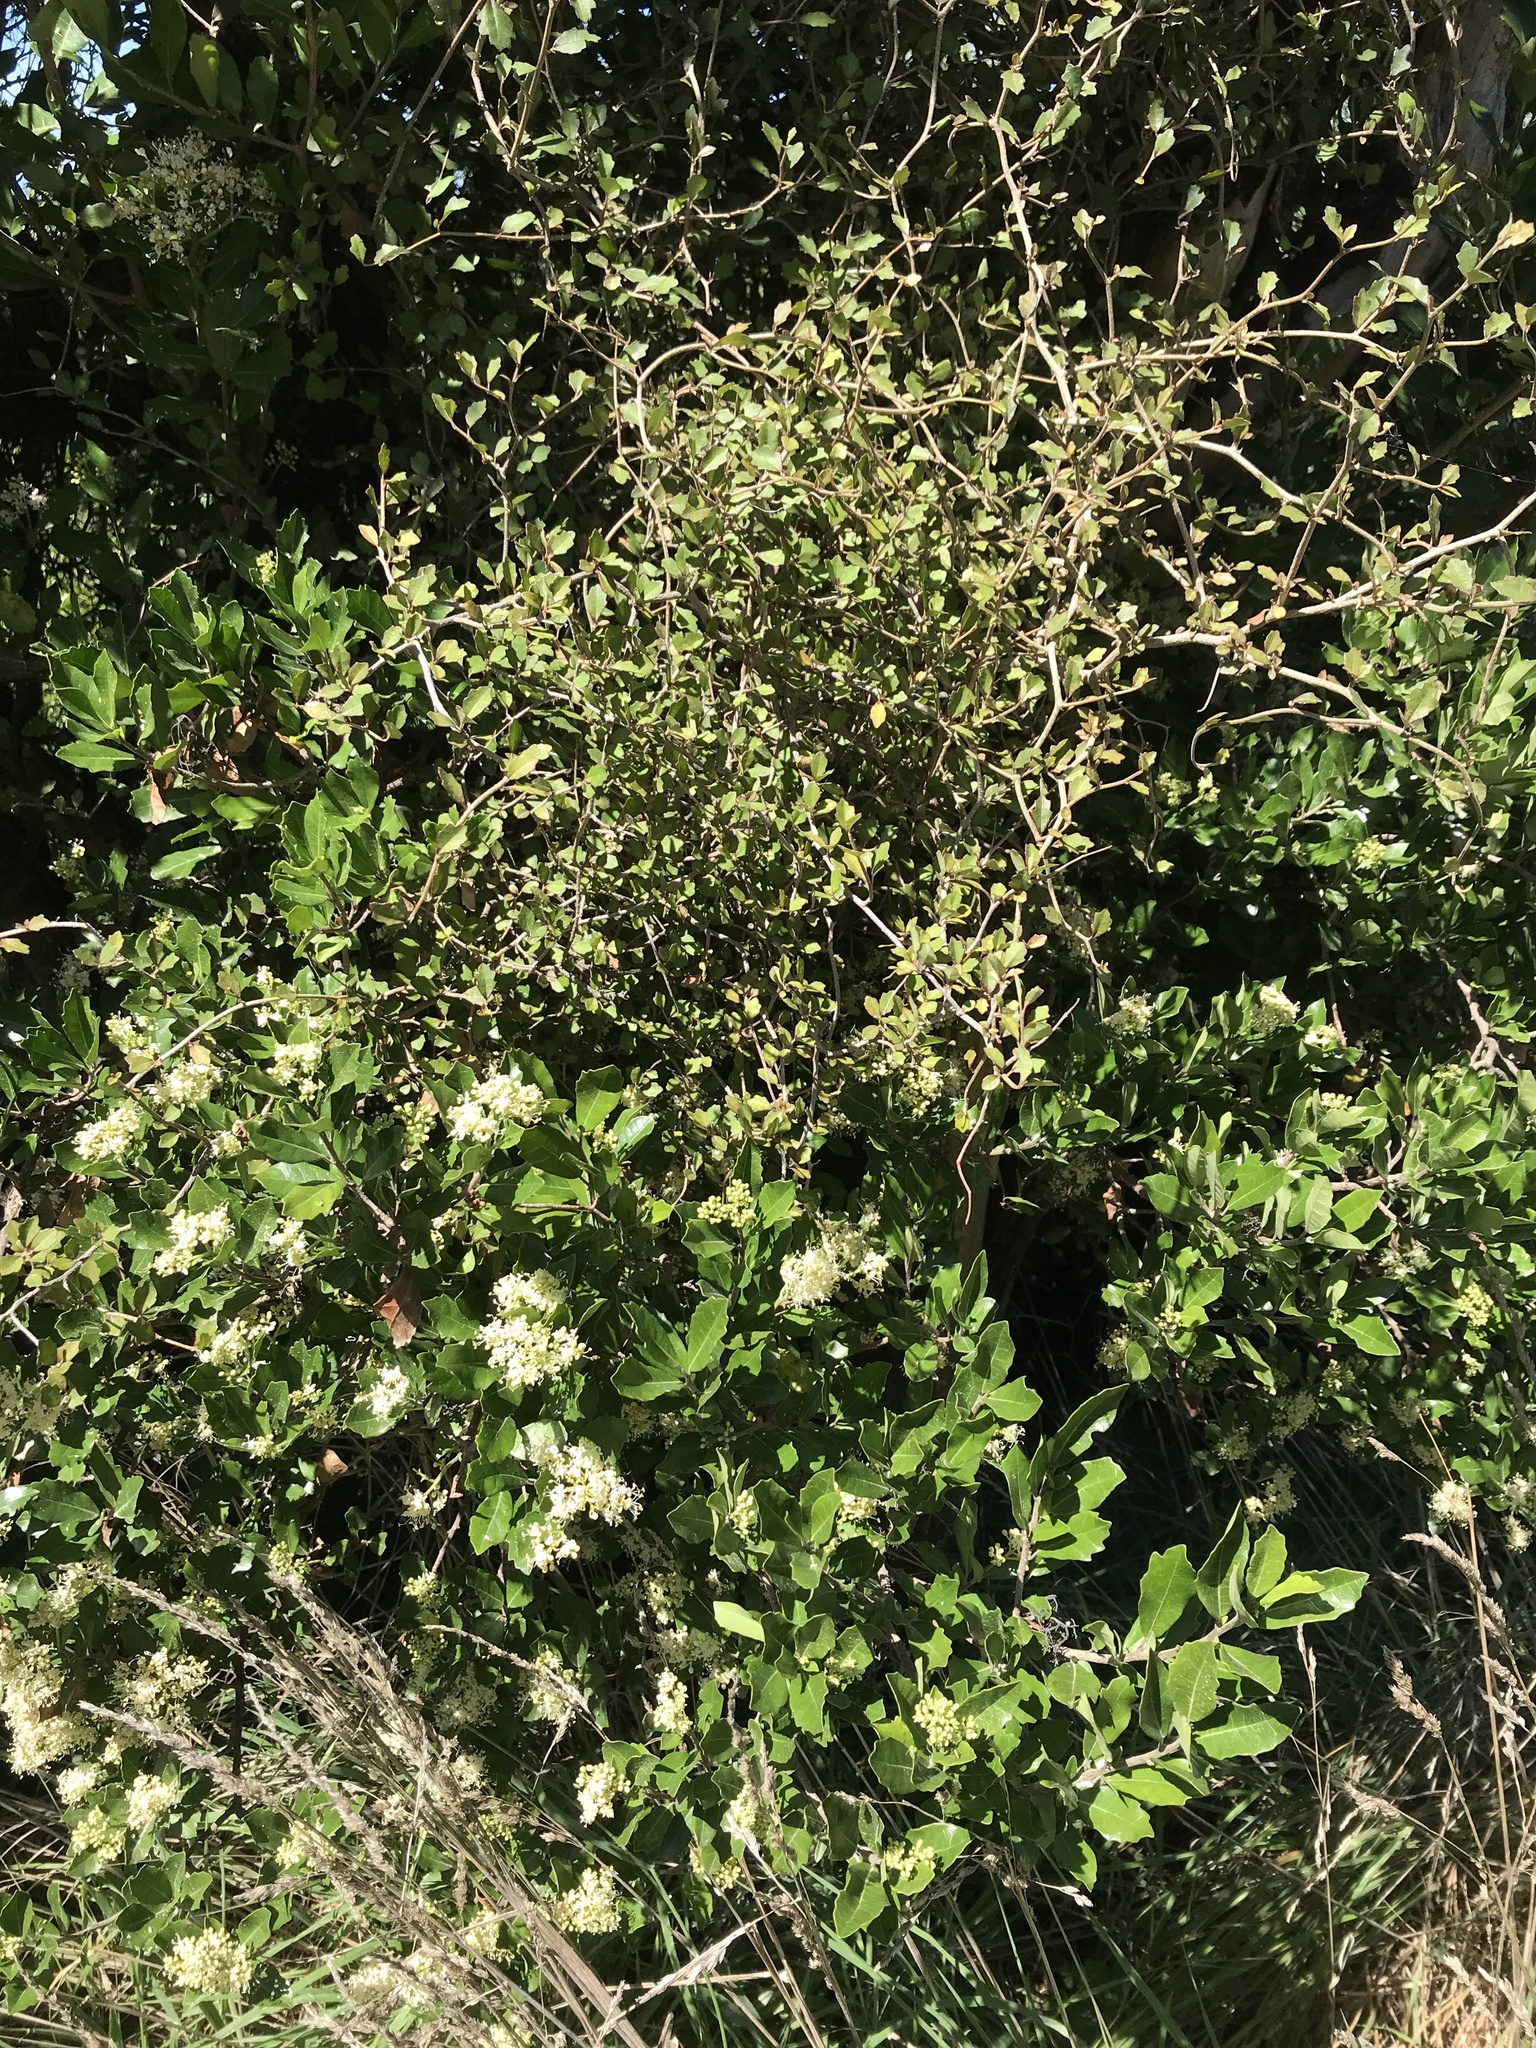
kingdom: Plantae
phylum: Tracheophyta
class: Magnoliopsida
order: Apiales
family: Pennantiaceae
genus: Pennantia
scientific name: Pennantia corymbosa
